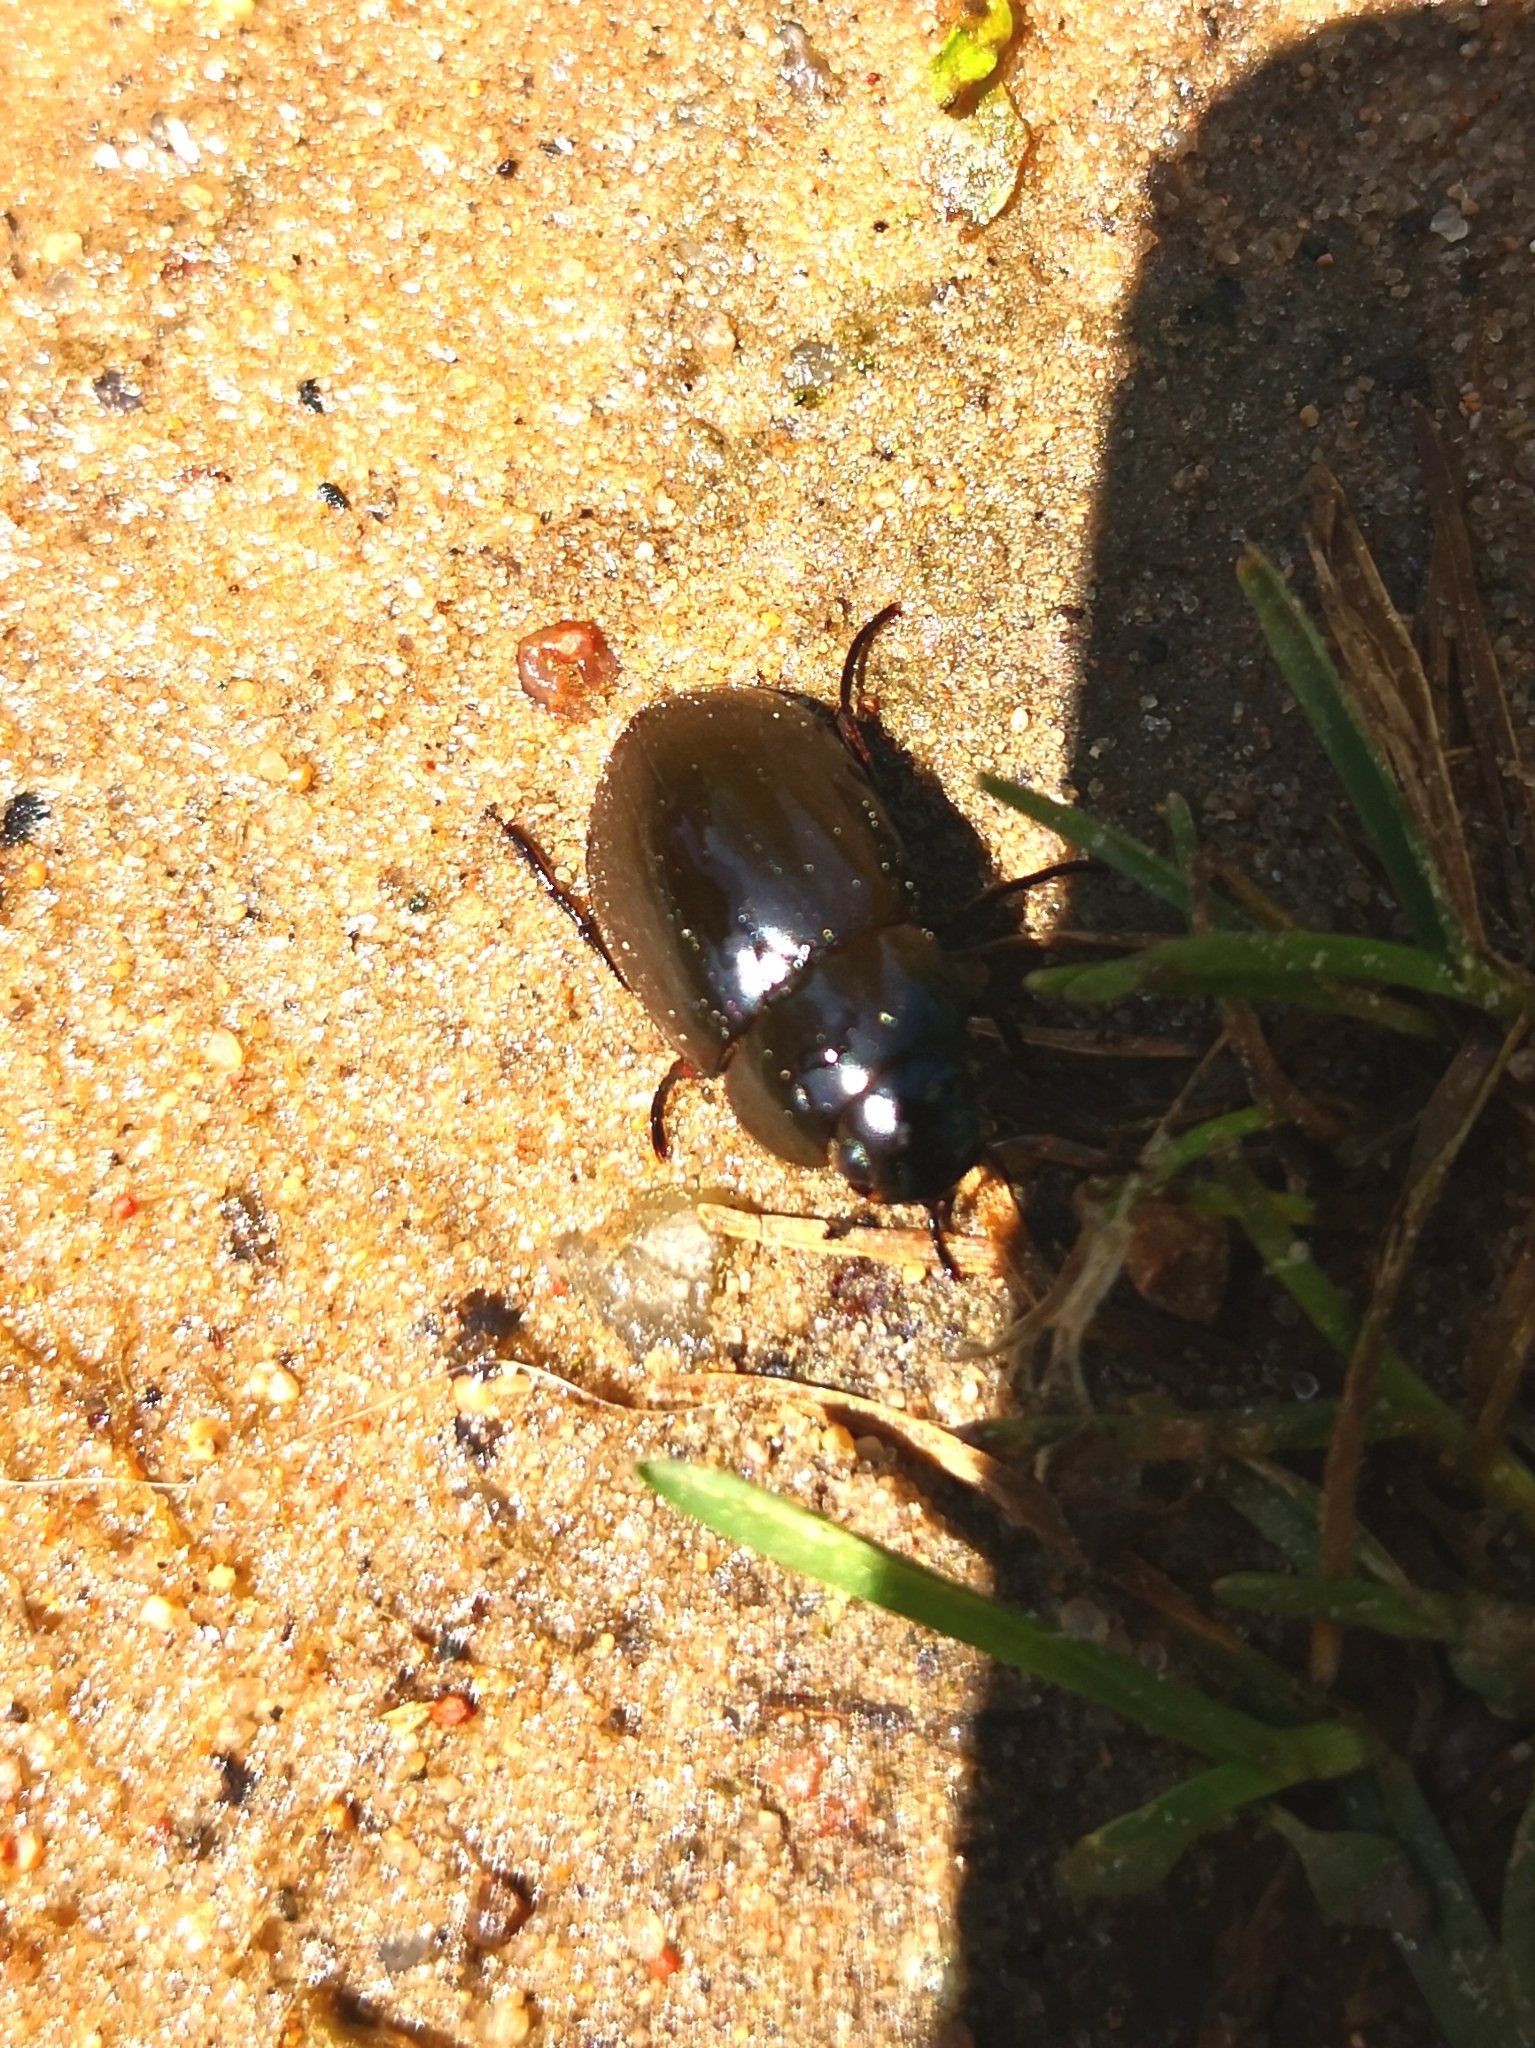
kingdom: Animalia
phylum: Arthropoda
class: Insecta
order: Coleoptera
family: Hydrophilidae
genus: Hydrochara
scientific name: Hydrochara caraboides
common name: Lesser silver water beetle
